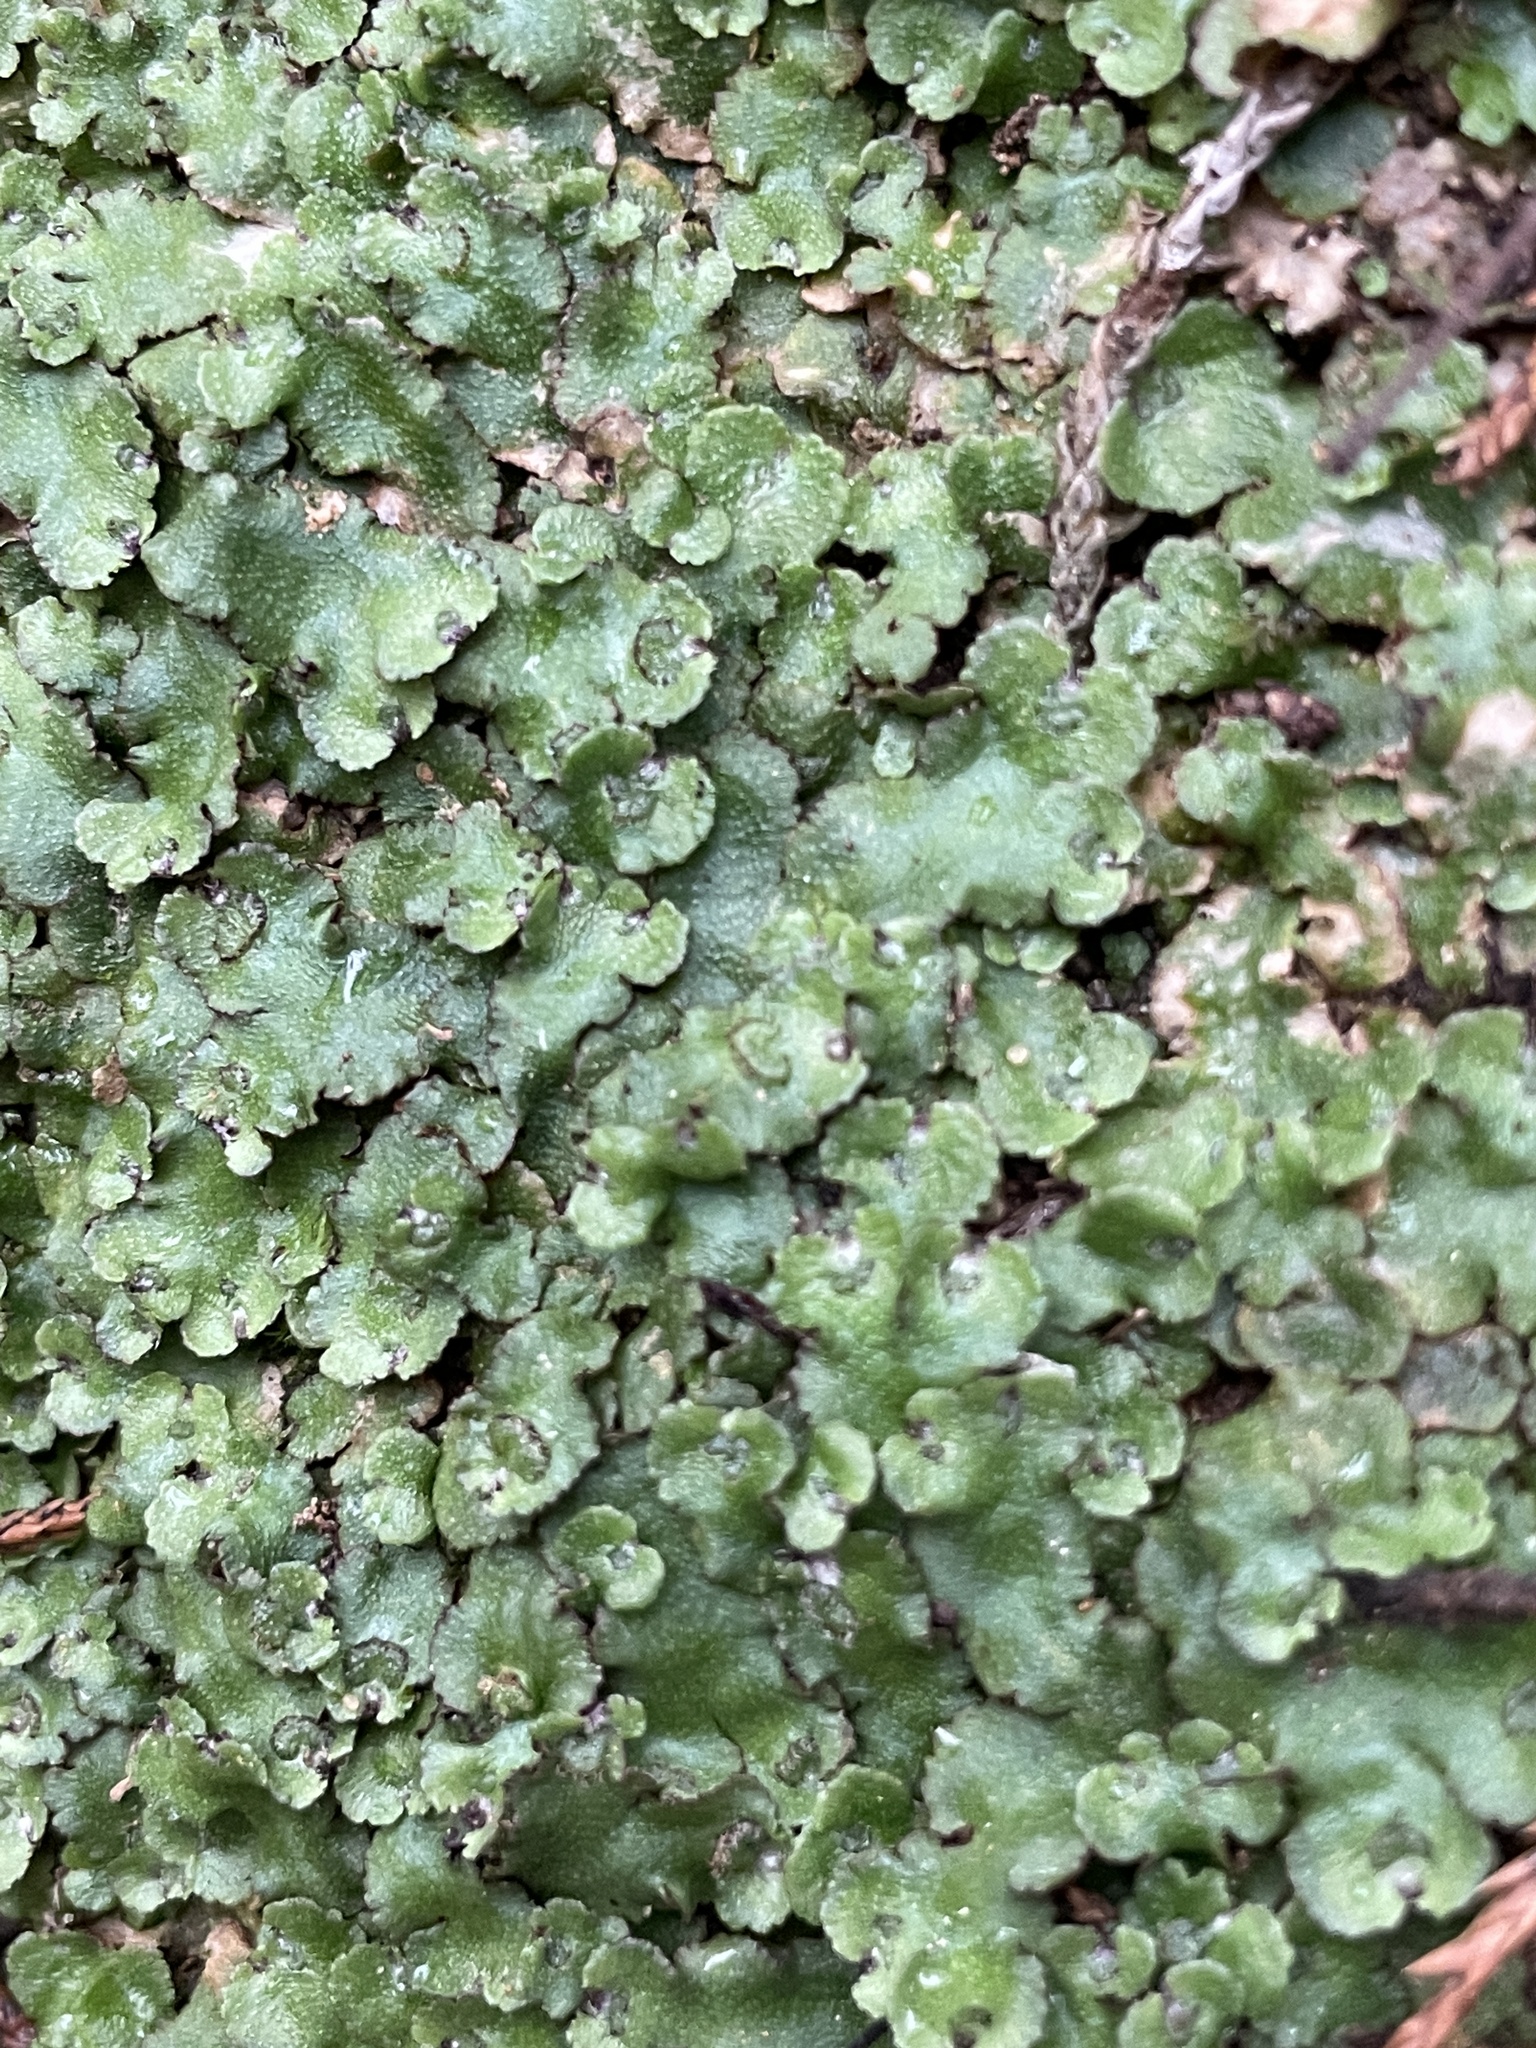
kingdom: Plantae
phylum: Marchantiophyta
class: Marchantiopsida
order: Marchantiales
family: Aytoniaceae
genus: Reboulia
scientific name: Reboulia hemisphaerica
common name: Purple-margined liverwort
